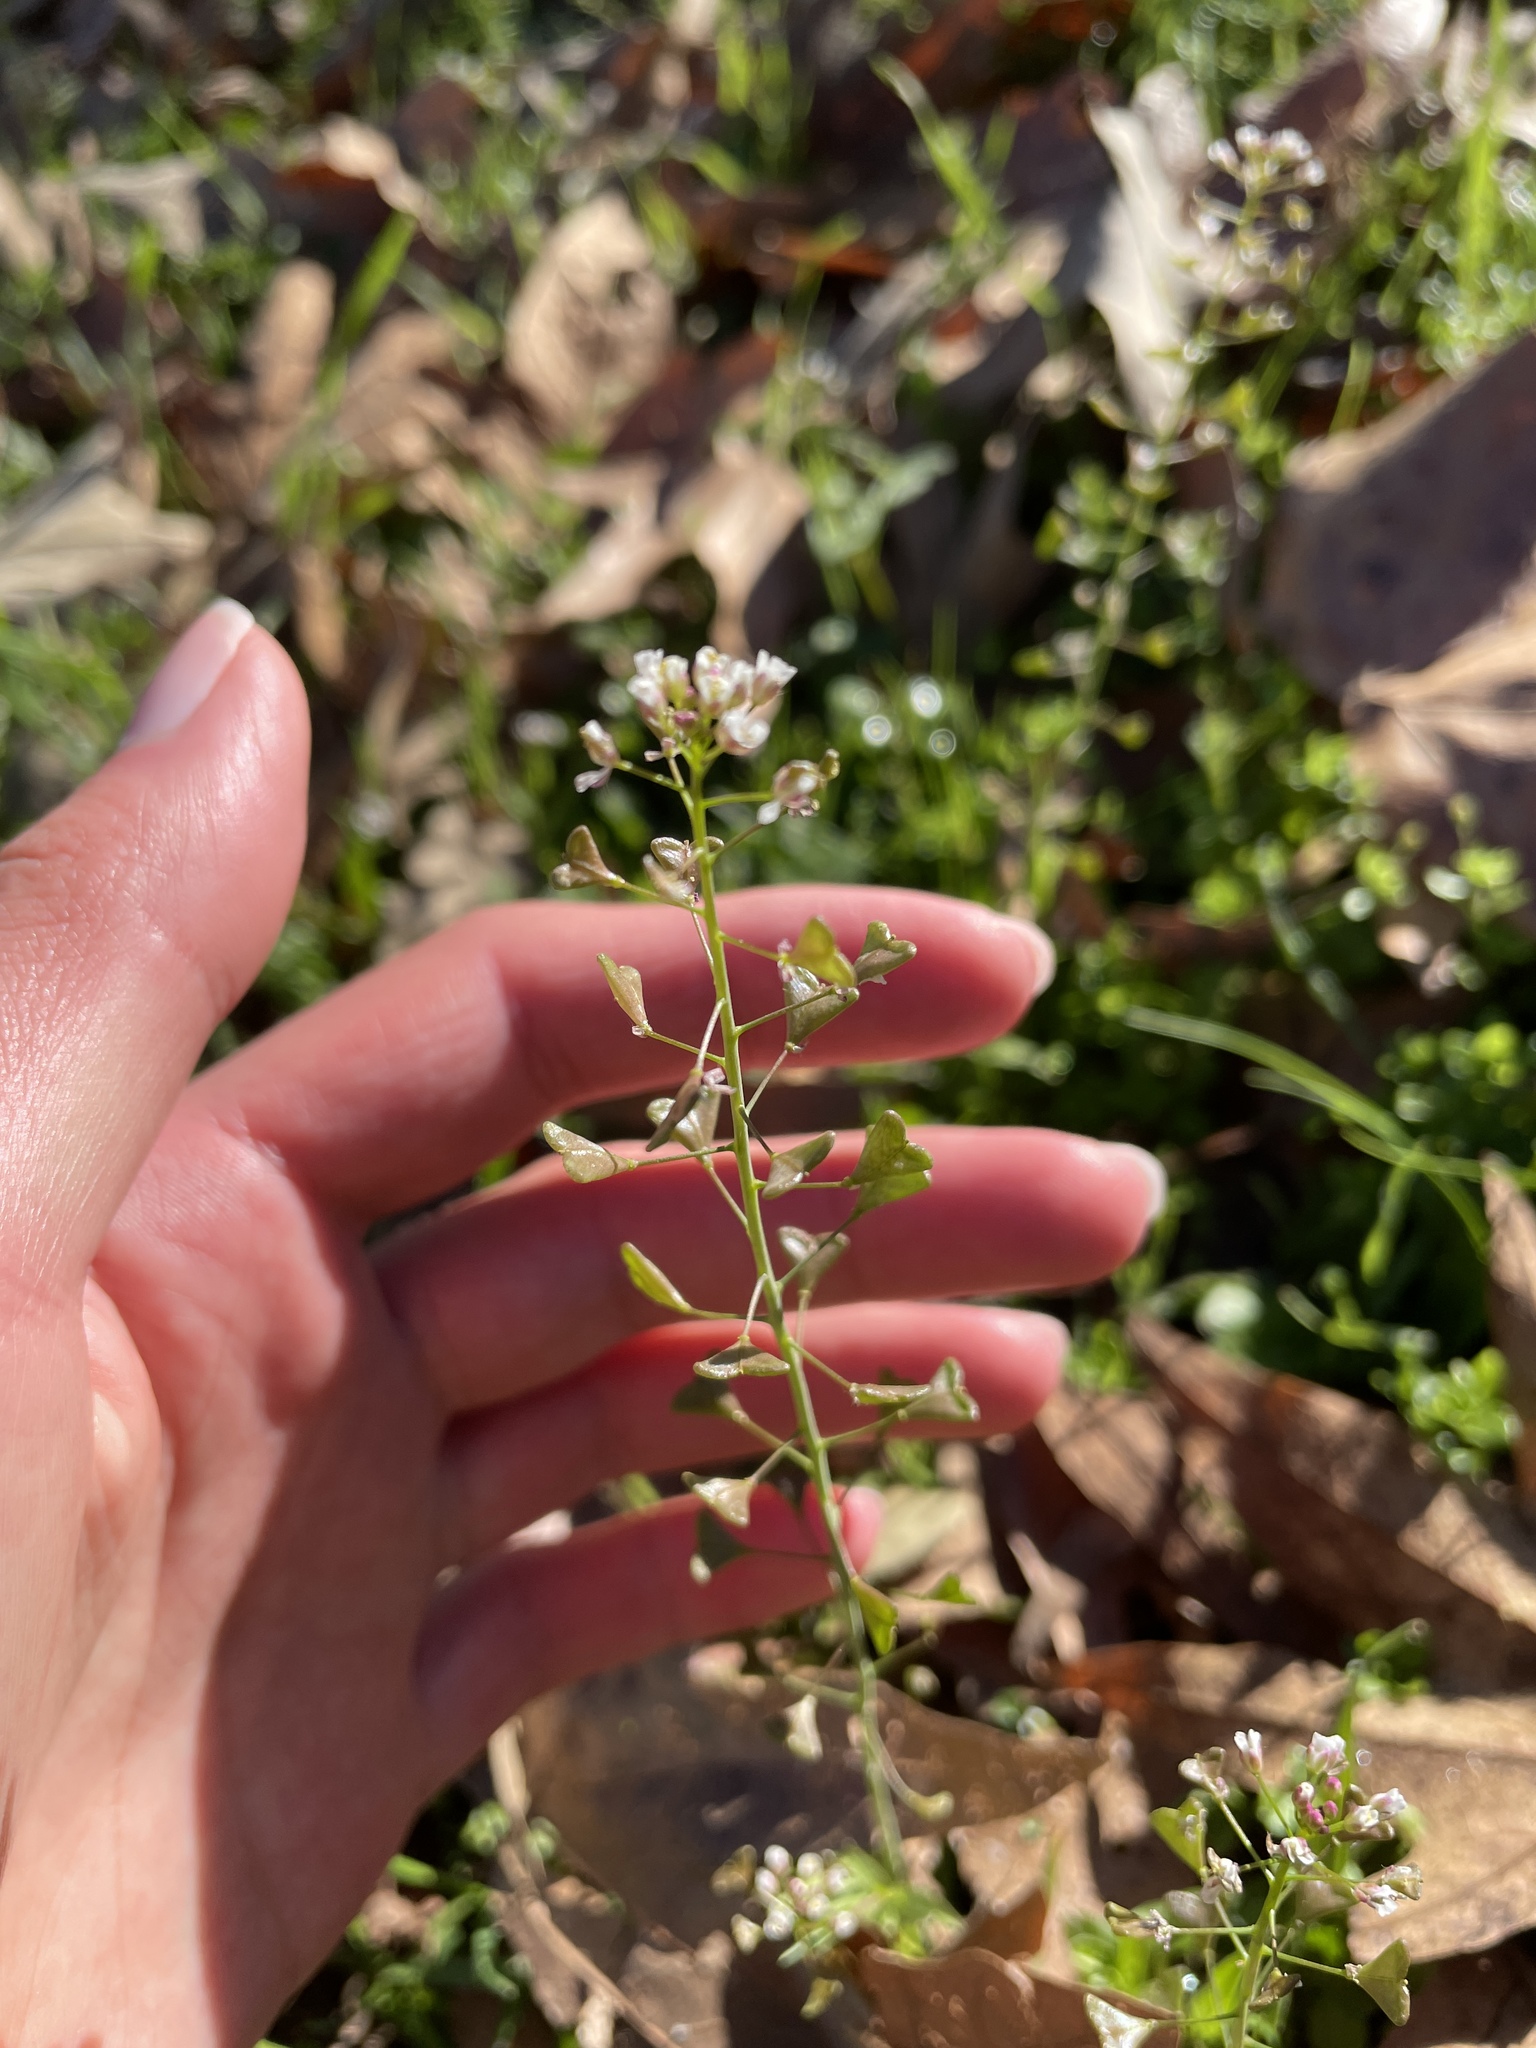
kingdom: Plantae
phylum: Tracheophyta
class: Magnoliopsida
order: Brassicales
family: Brassicaceae
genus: Capsella
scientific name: Capsella bursa-pastoris
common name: Shepherd's purse
